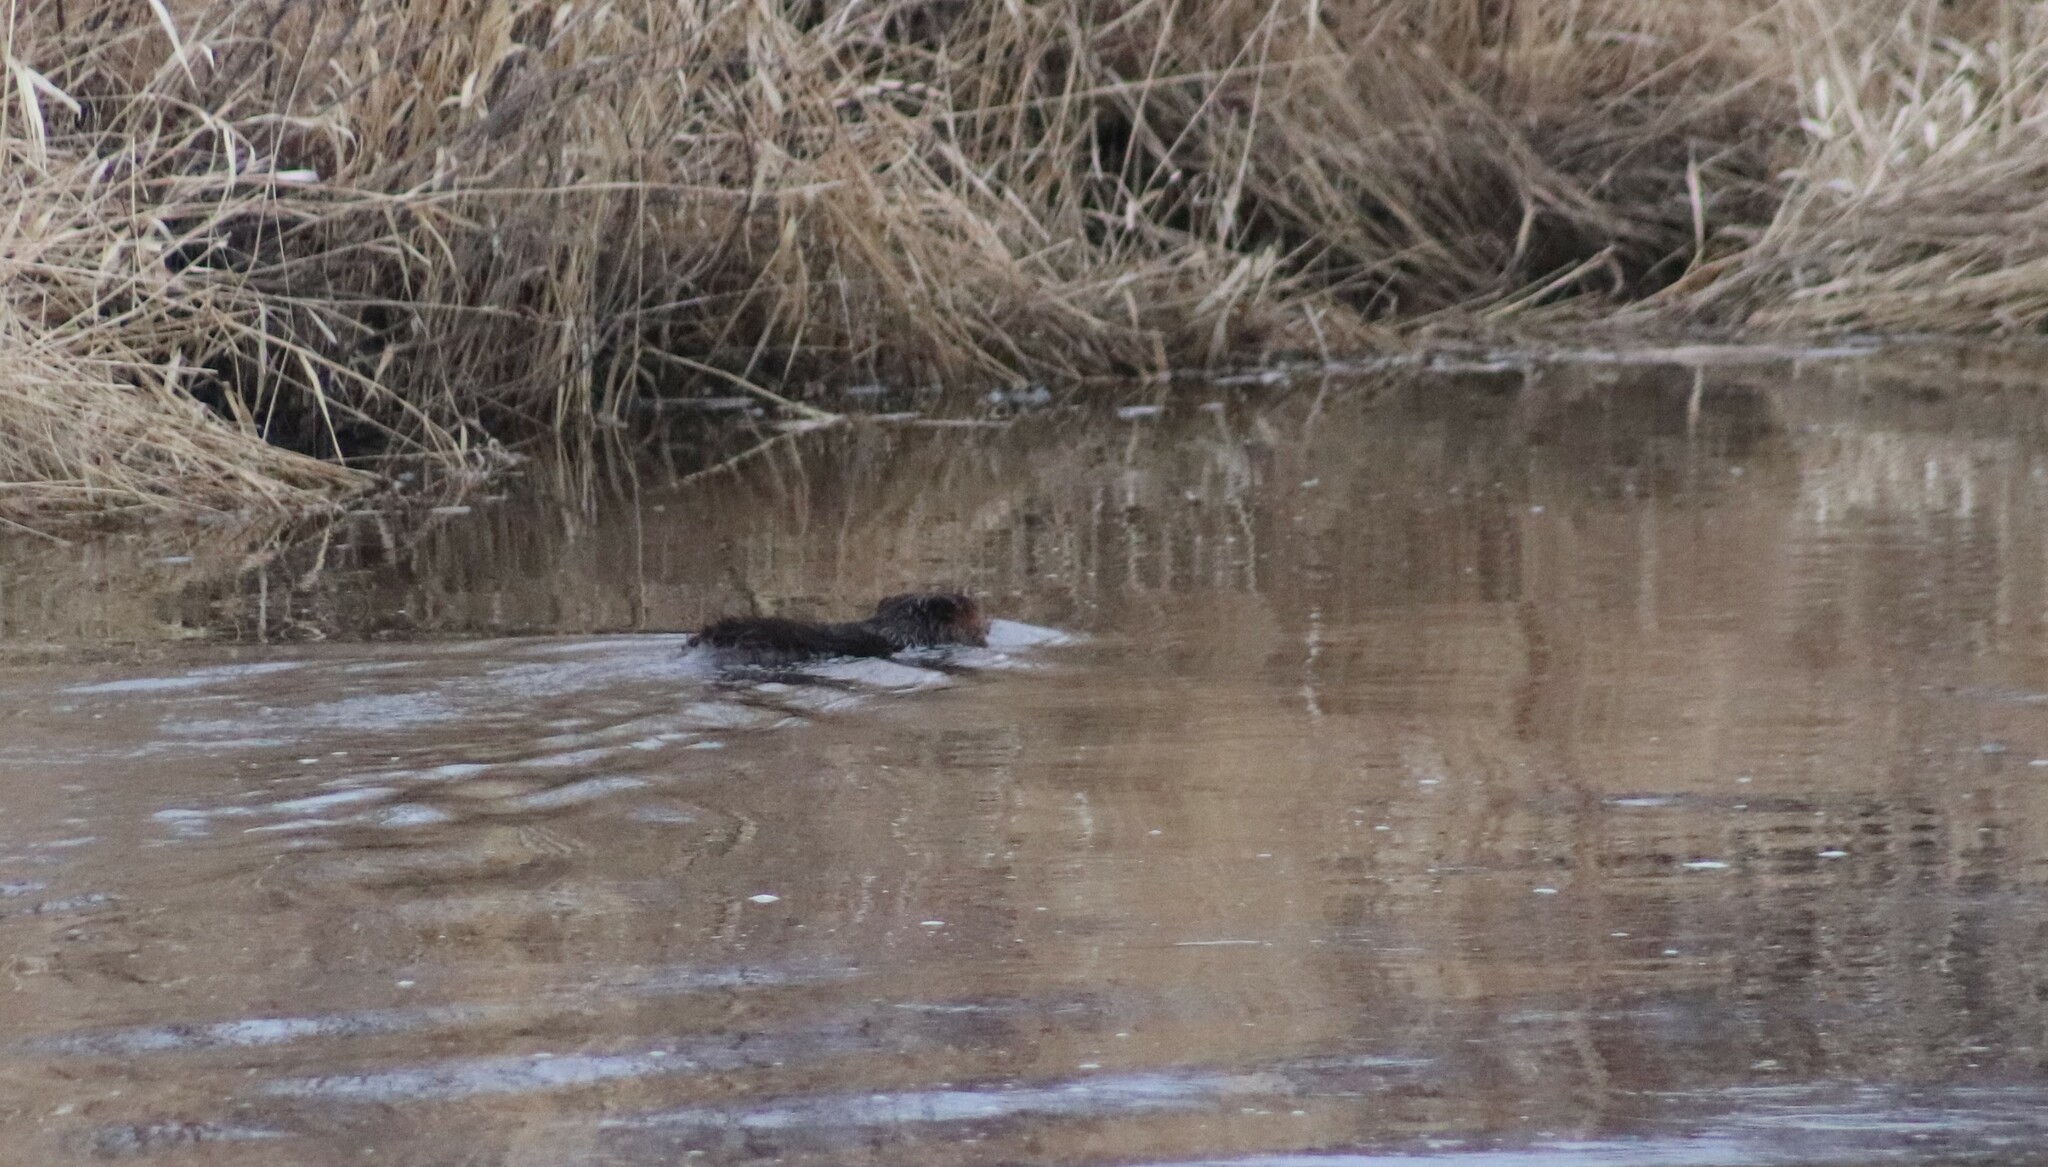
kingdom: Animalia
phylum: Chordata
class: Mammalia
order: Rodentia
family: Castoridae
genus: Castor
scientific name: Castor canadensis
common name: American beaver
